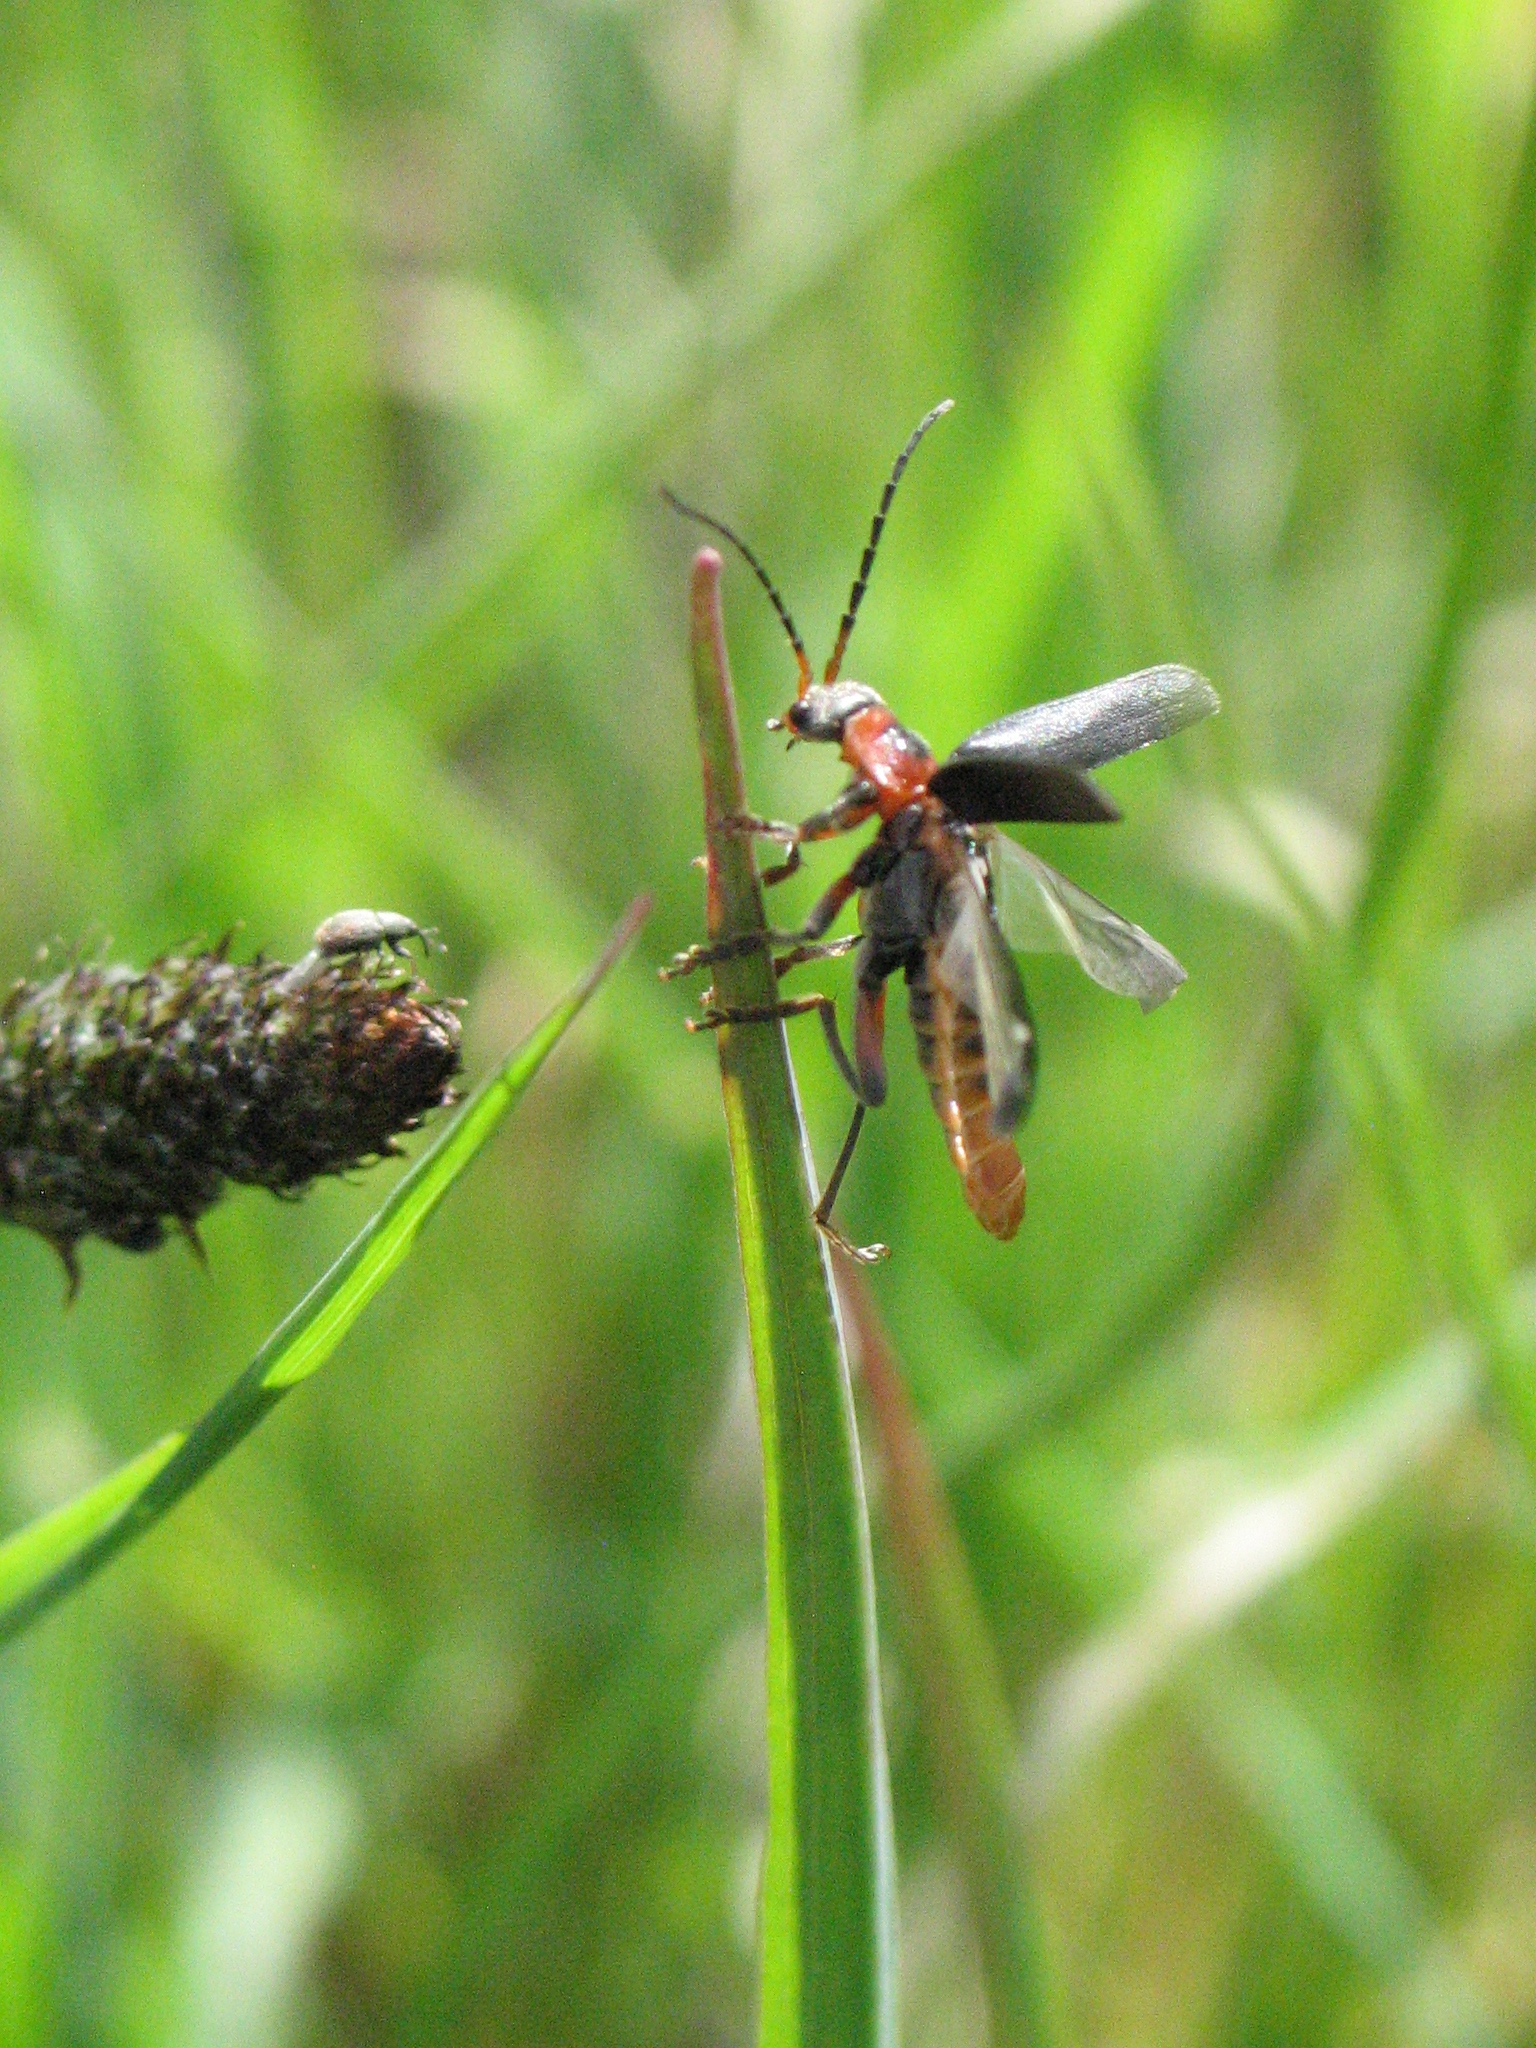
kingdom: Animalia
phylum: Arthropoda
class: Insecta
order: Coleoptera
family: Cantharidae
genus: Cantharis
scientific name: Cantharis rustica
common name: Soldier beetle
